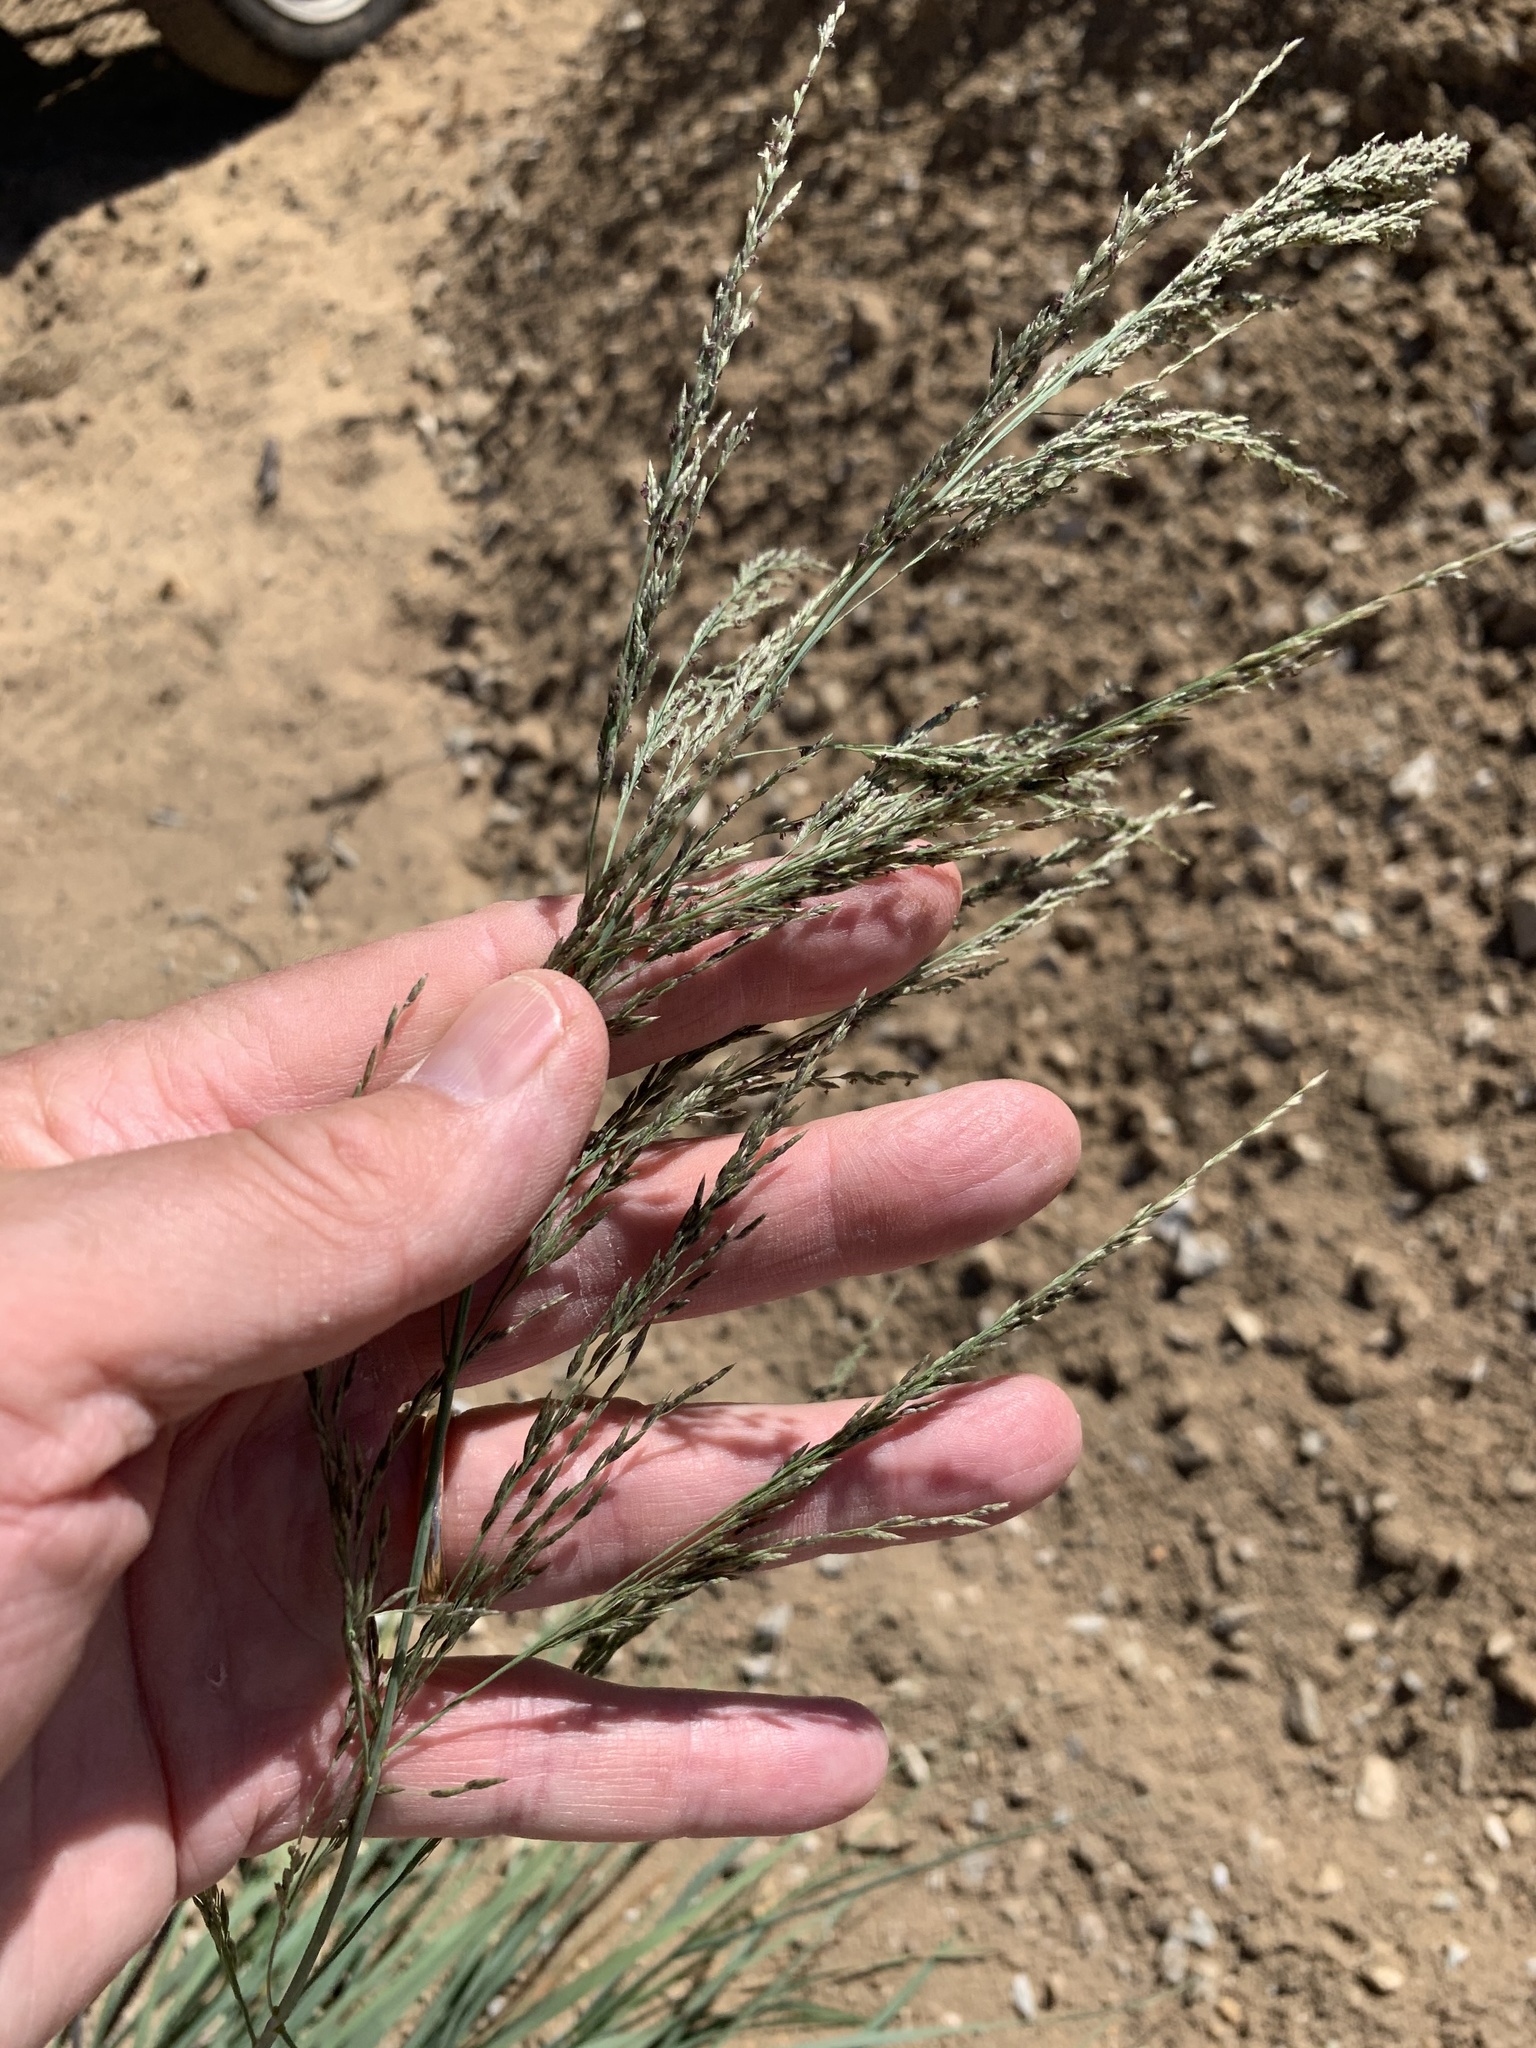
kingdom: Plantae
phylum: Tracheophyta
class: Liliopsida
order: Poales
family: Poaceae
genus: Eragrostis
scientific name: Eragrostis curvula
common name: African love-grass
